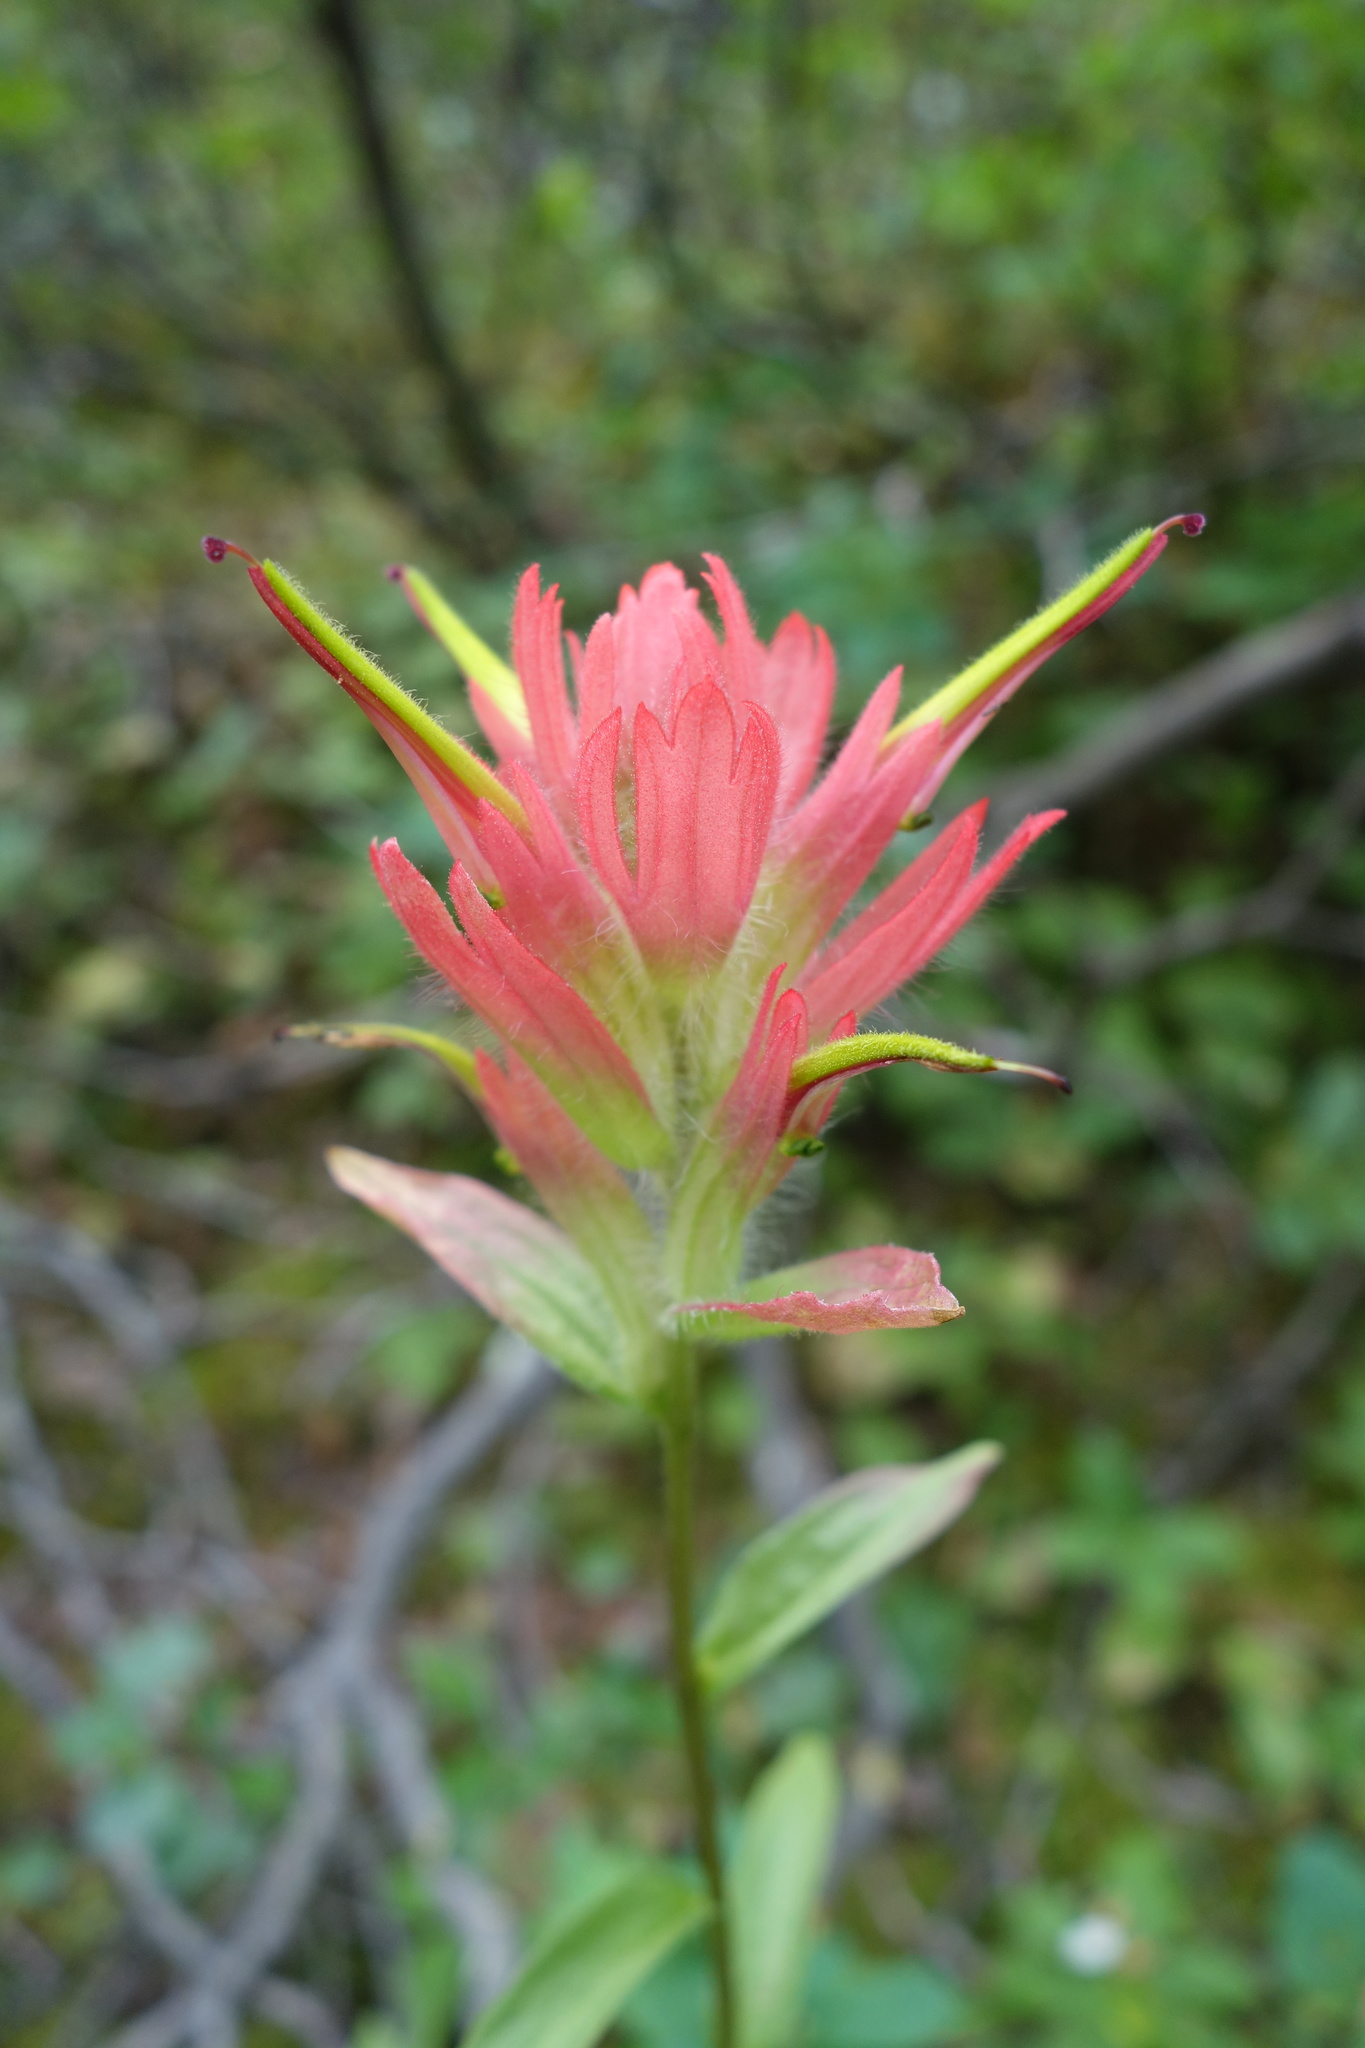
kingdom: Plantae
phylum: Tracheophyta
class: Magnoliopsida
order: Lamiales
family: Orobanchaceae
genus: Castilleja
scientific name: Castilleja miniata
